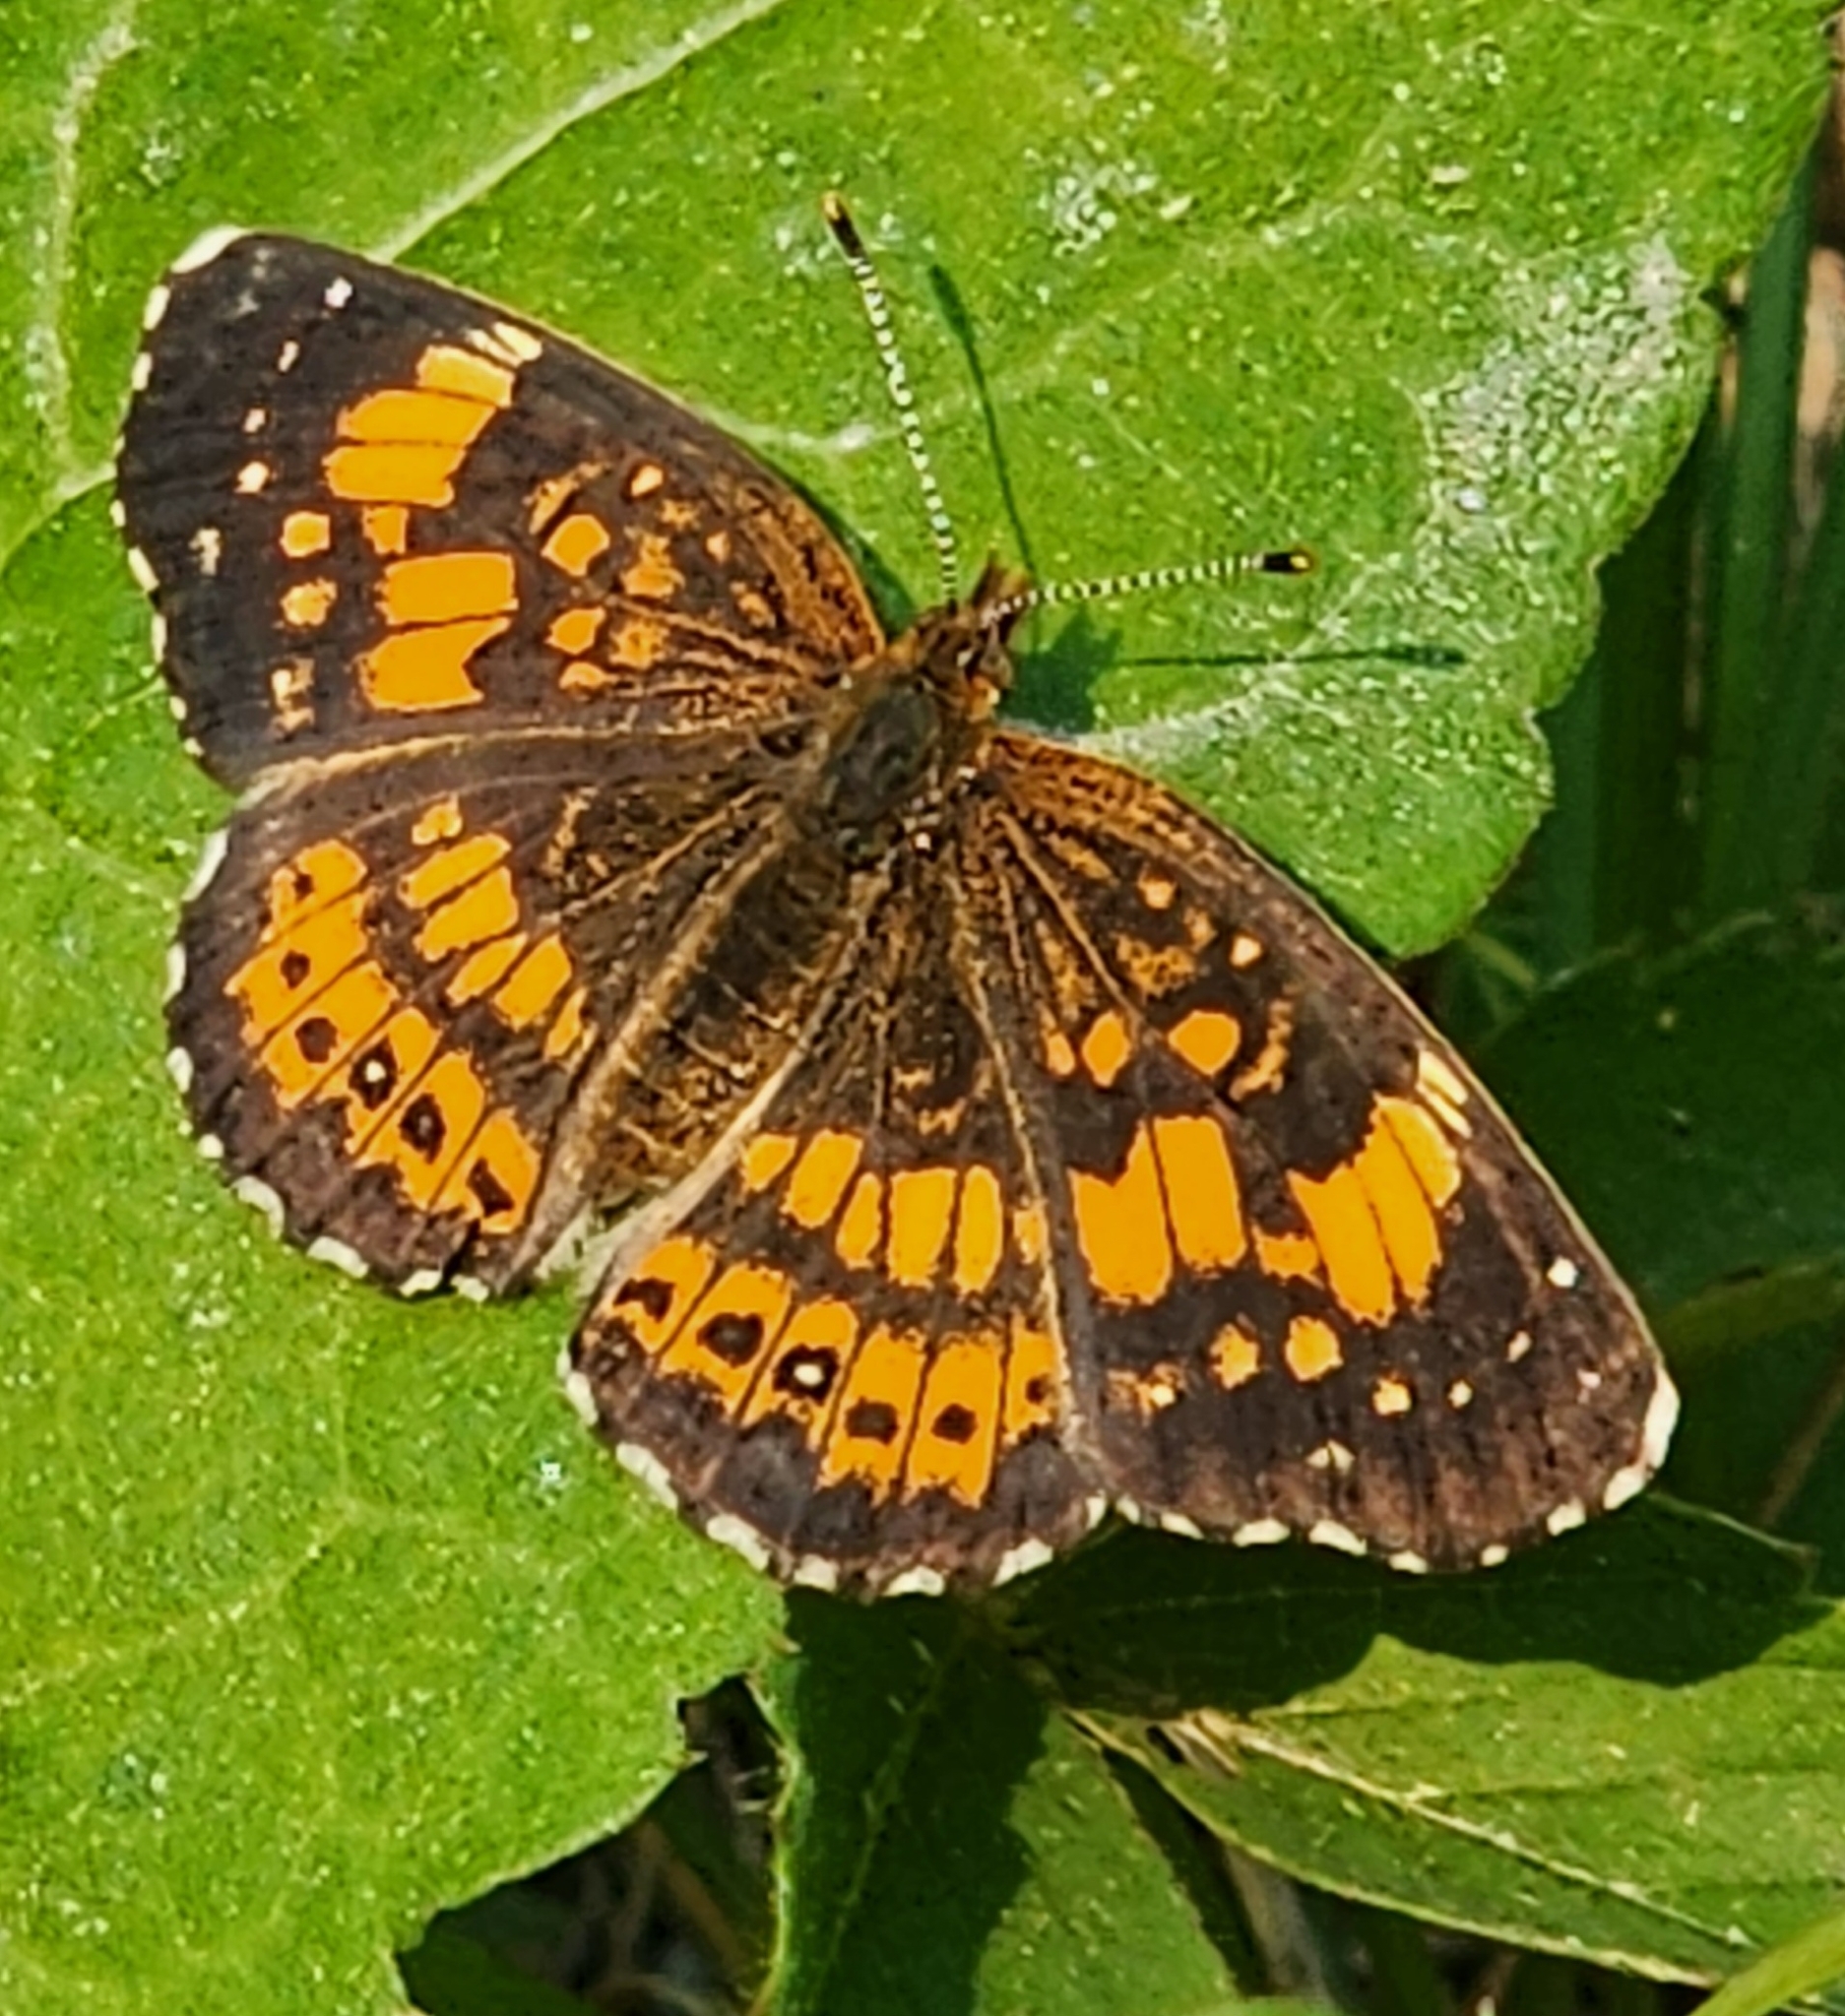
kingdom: Animalia
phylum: Arthropoda
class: Insecta
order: Lepidoptera
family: Nymphalidae
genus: Chlosyne
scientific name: Chlosyne nycteis
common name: Silvery checkerspot
